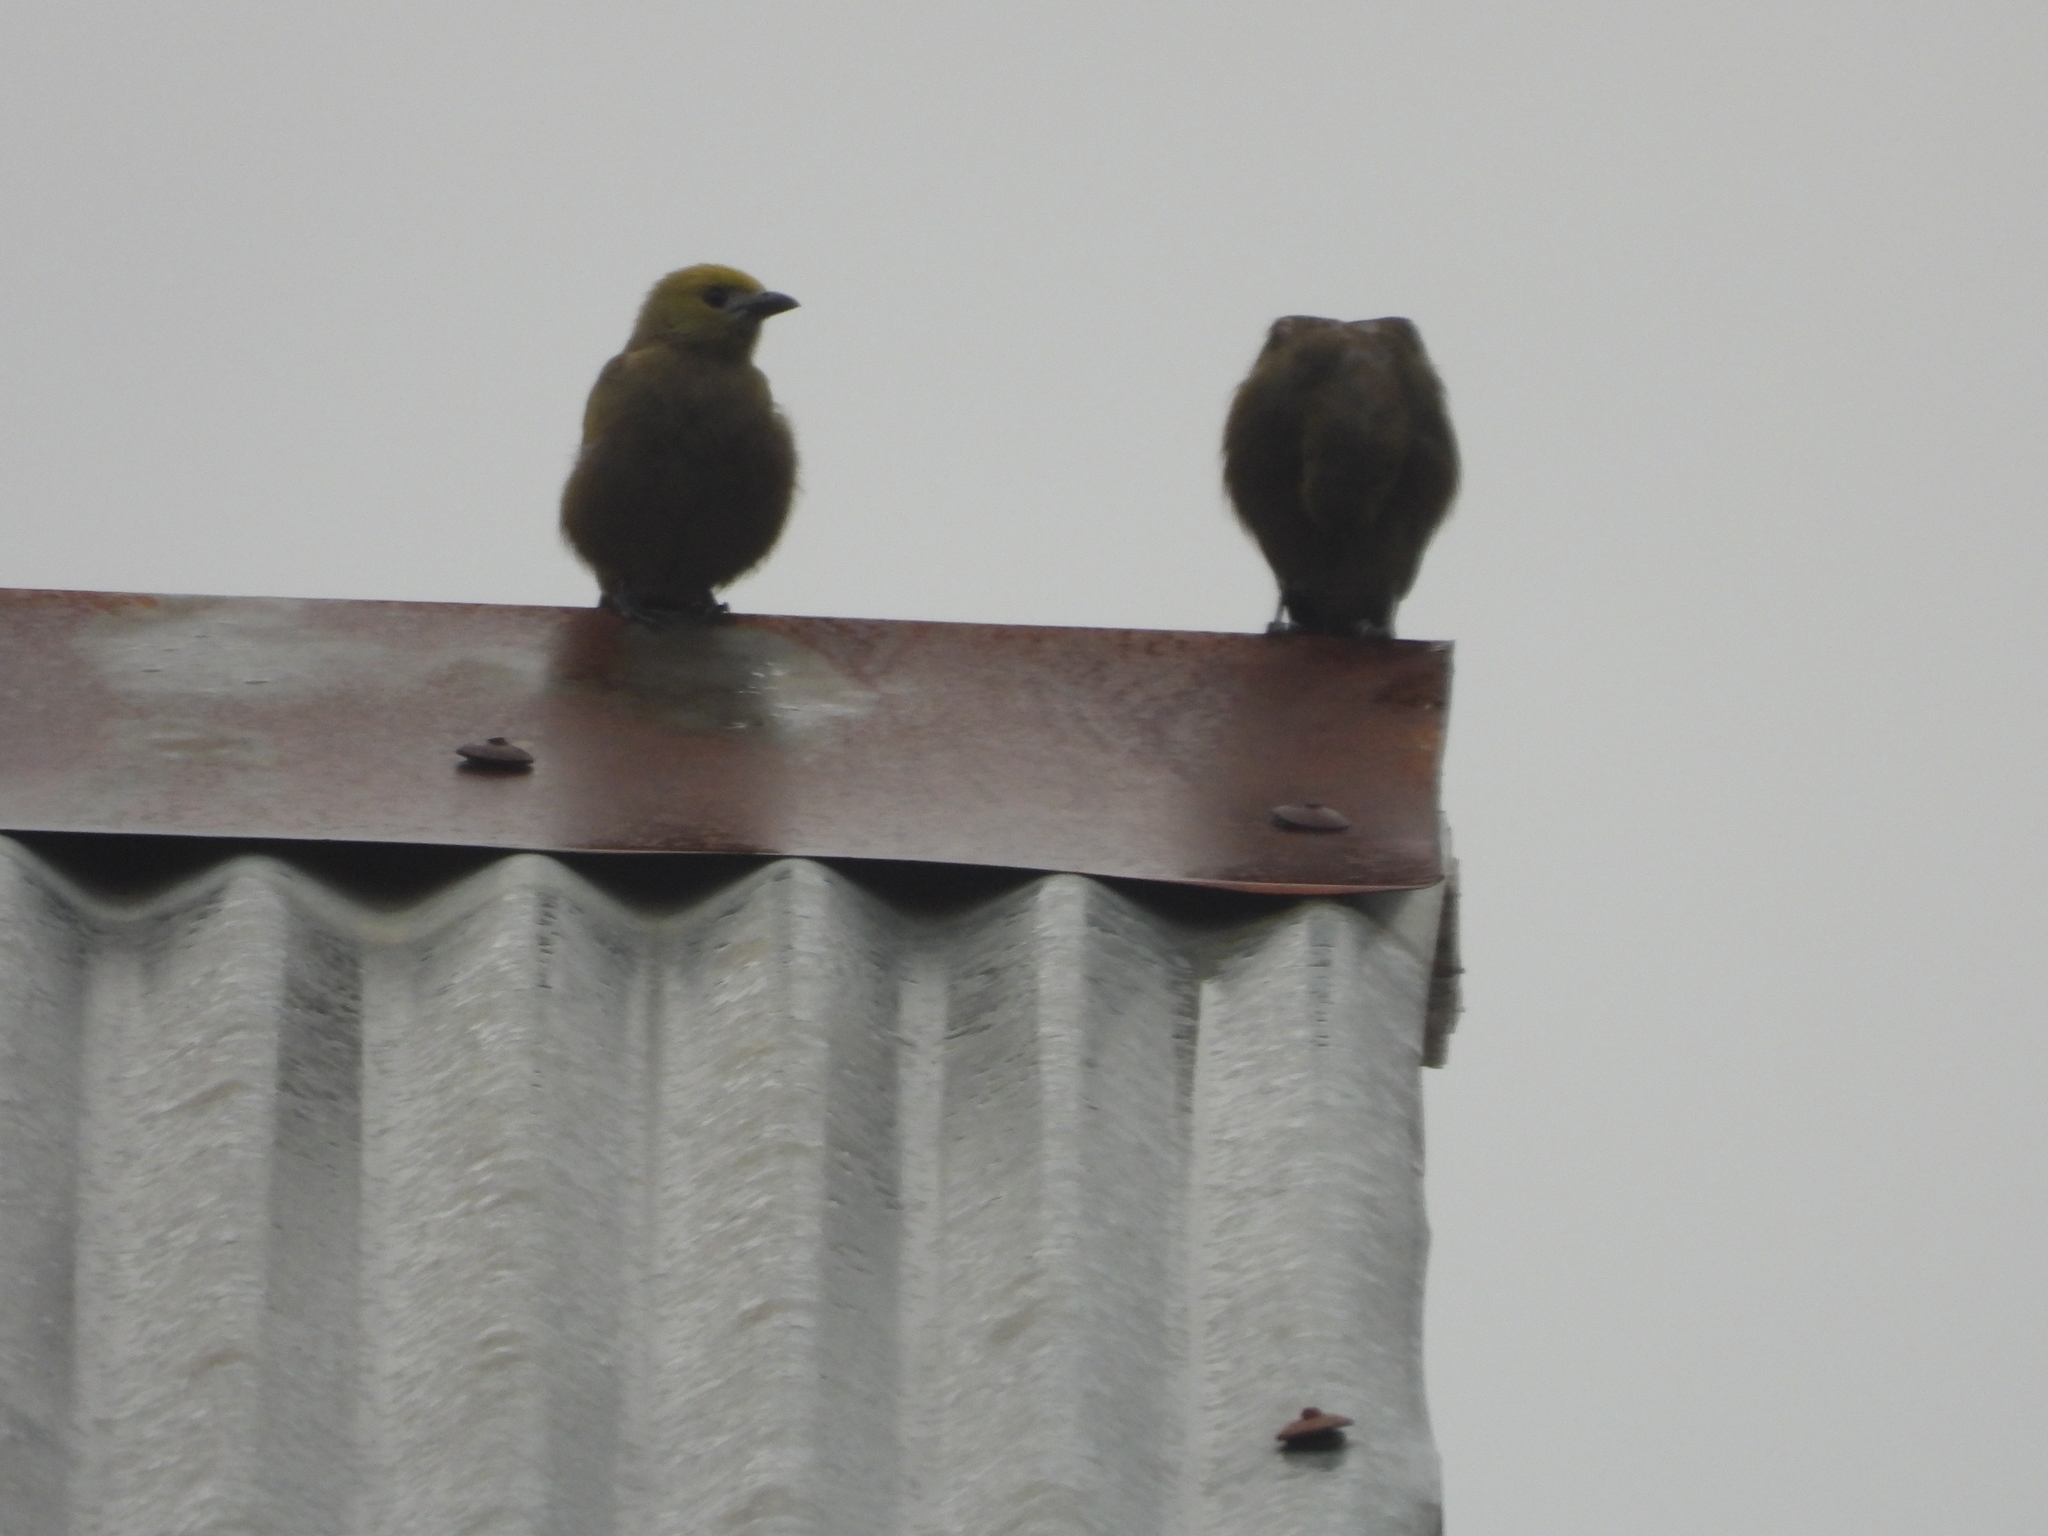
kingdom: Animalia
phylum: Chordata
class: Aves
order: Passeriformes
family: Thraupidae
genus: Thraupis
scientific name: Thraupis palmarum
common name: Palm tanager
